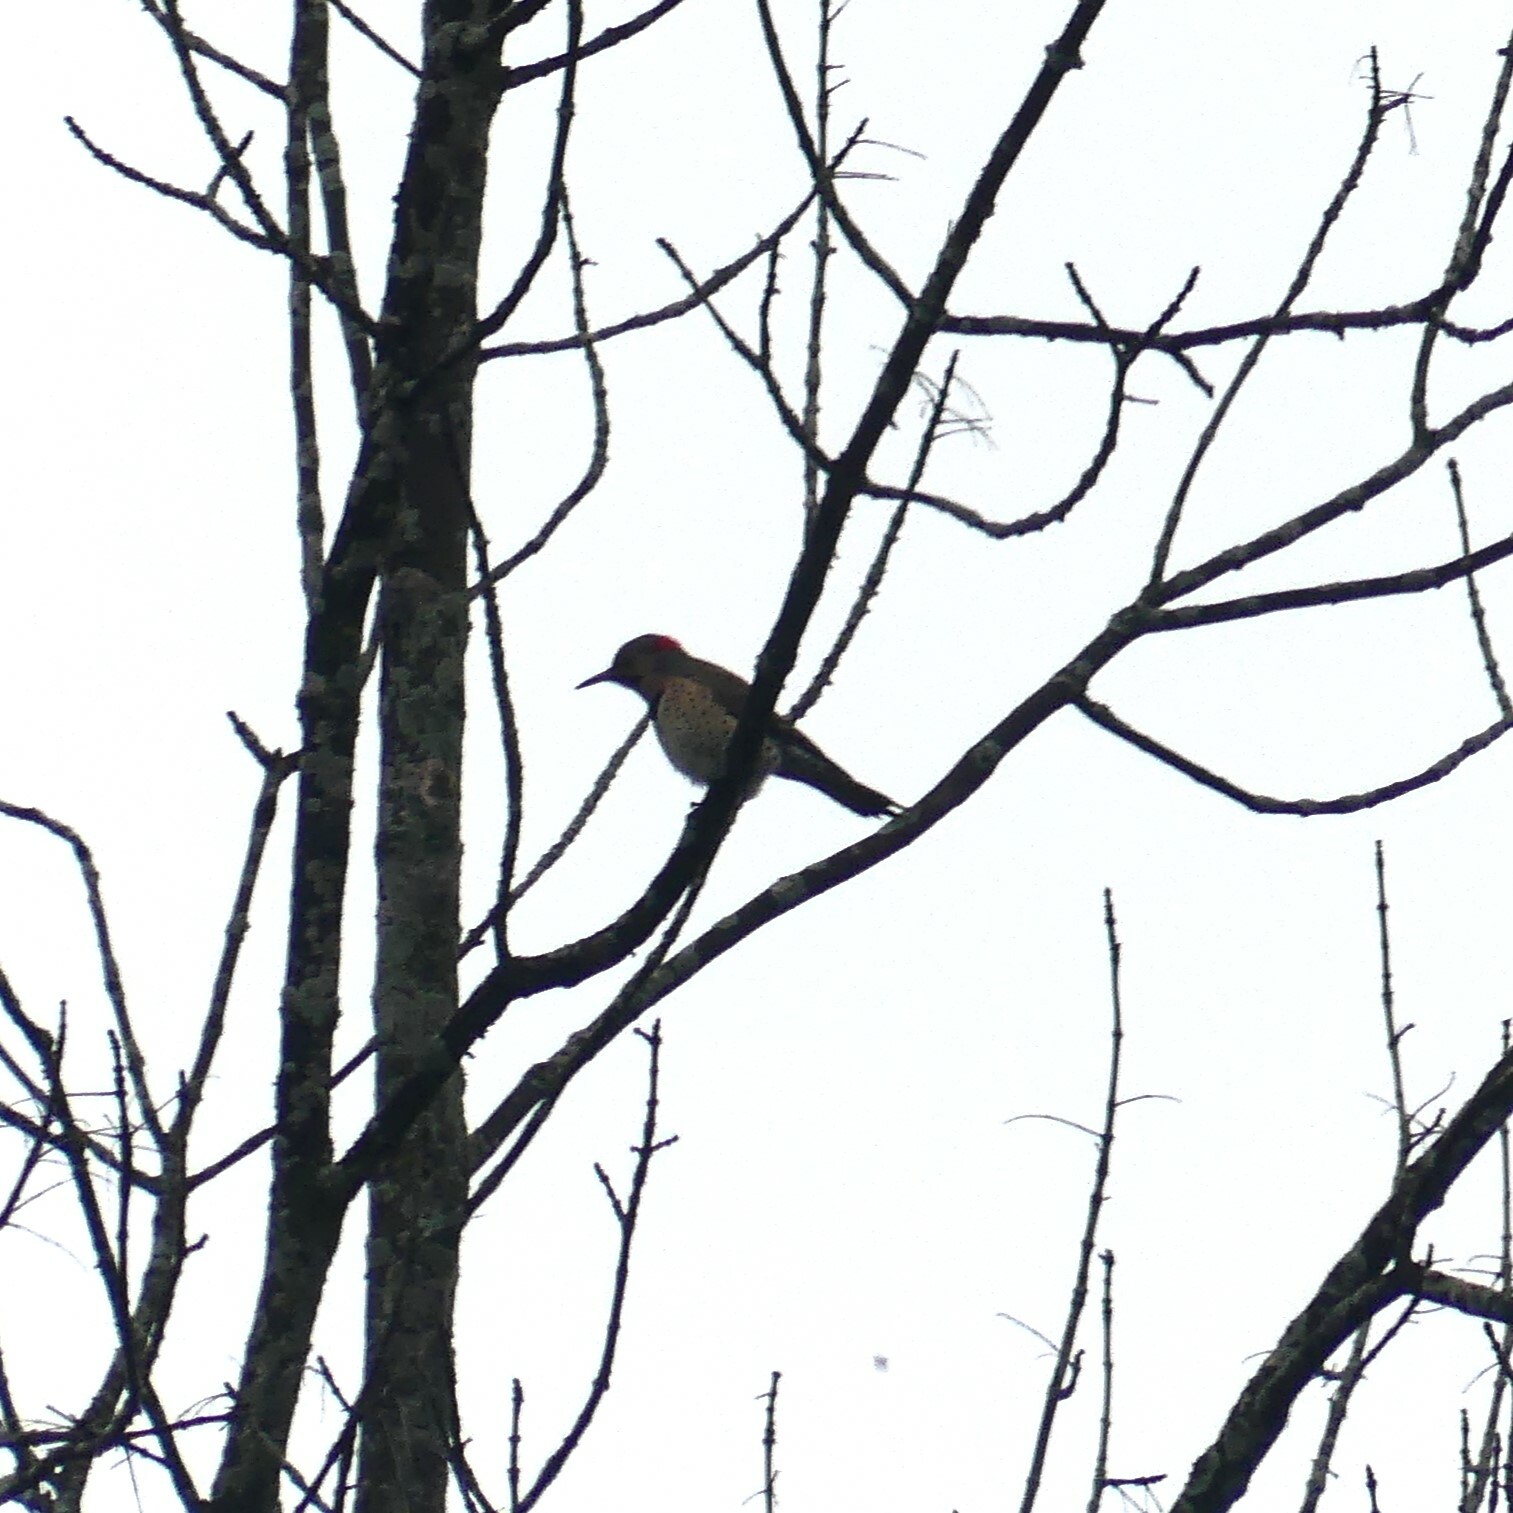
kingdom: Animalia
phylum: Chordata
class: Aves
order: Piciformes
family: Picidae
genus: Colaptes
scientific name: Colaptes auratus
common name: Northern flicker
